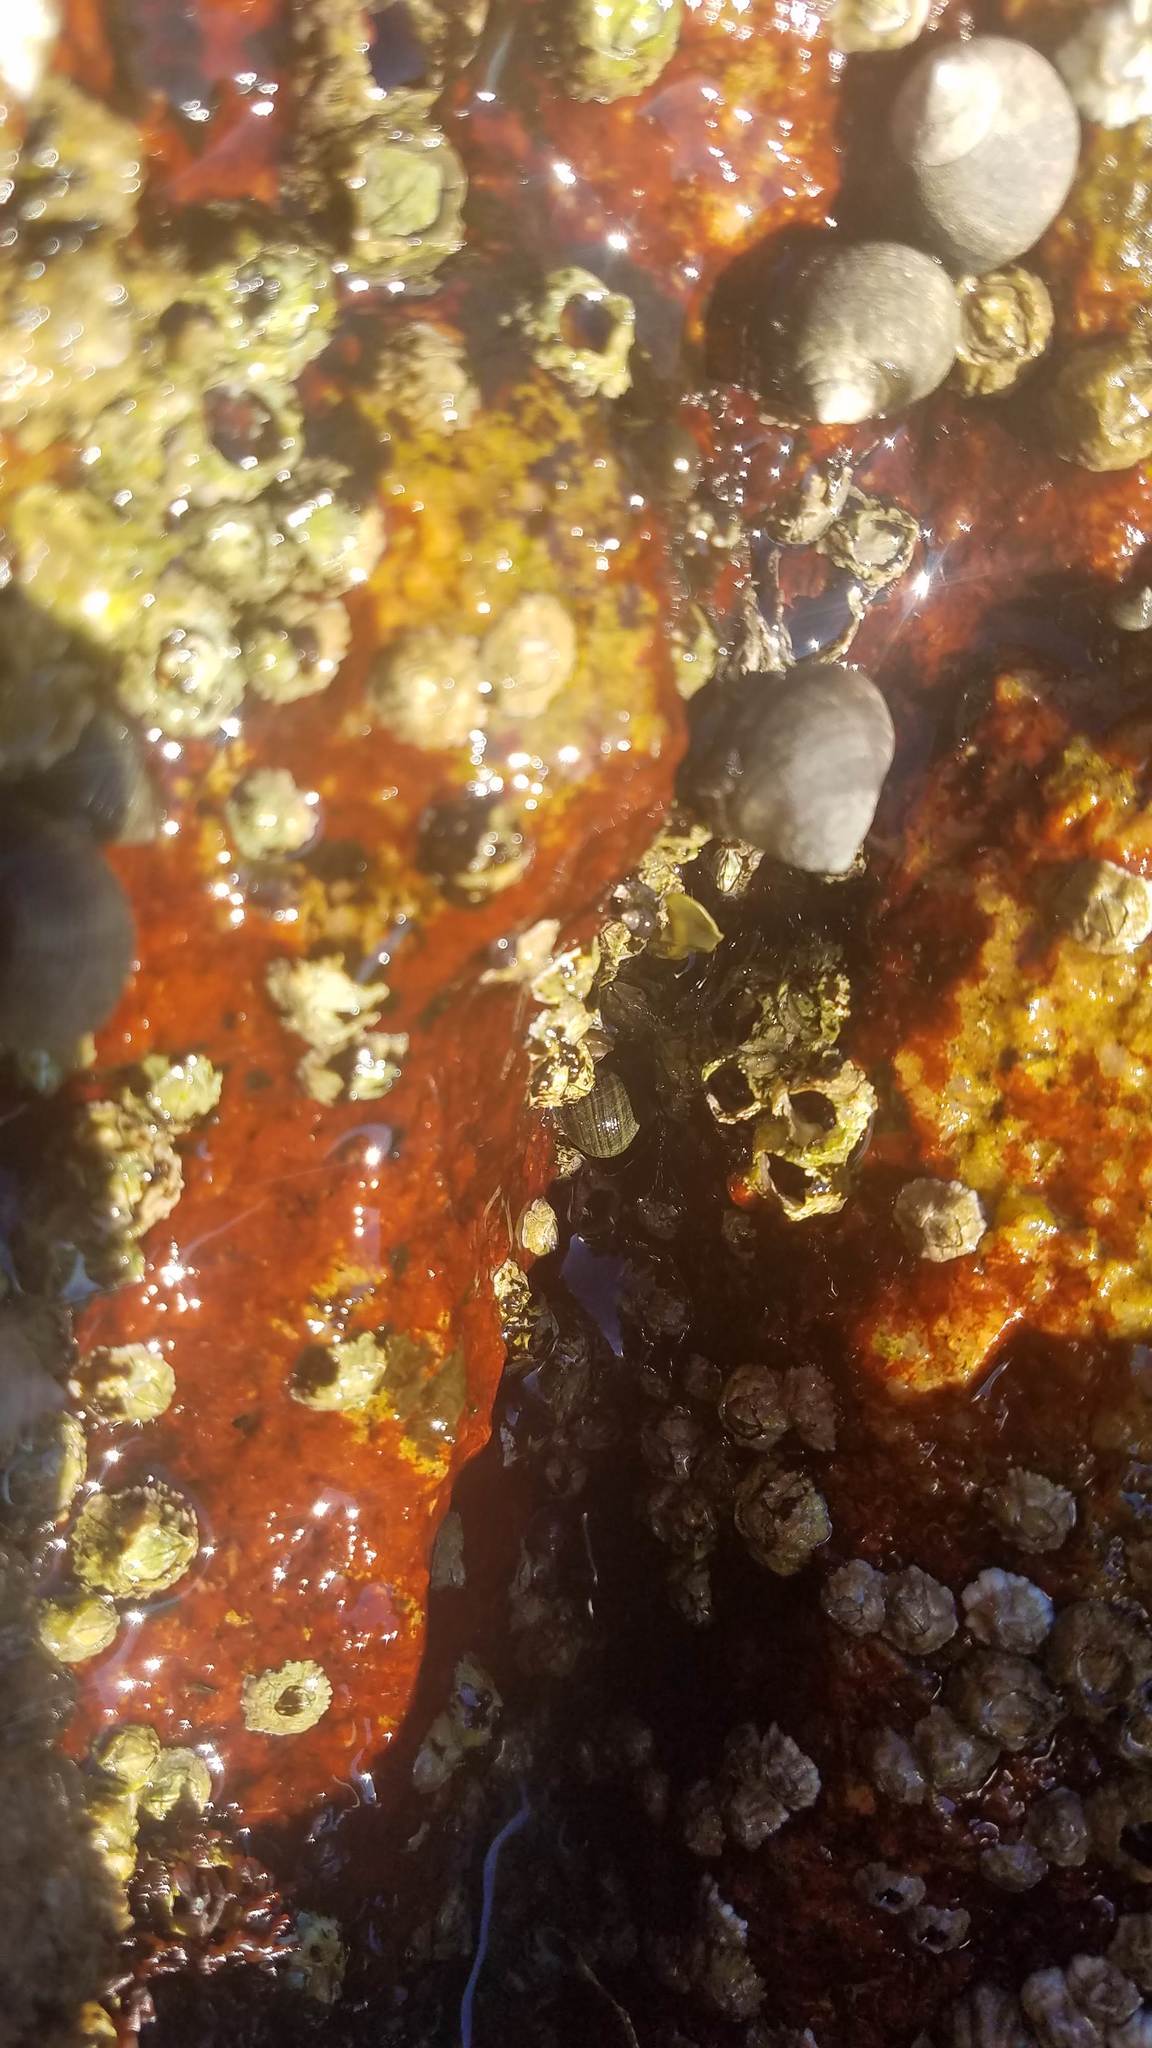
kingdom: Animalia
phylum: Mollusca
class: Gastropoda
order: Littorinimorpha
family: Littorinidae
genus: Littorina
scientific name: Littorina littorea
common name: Common periwinkle
